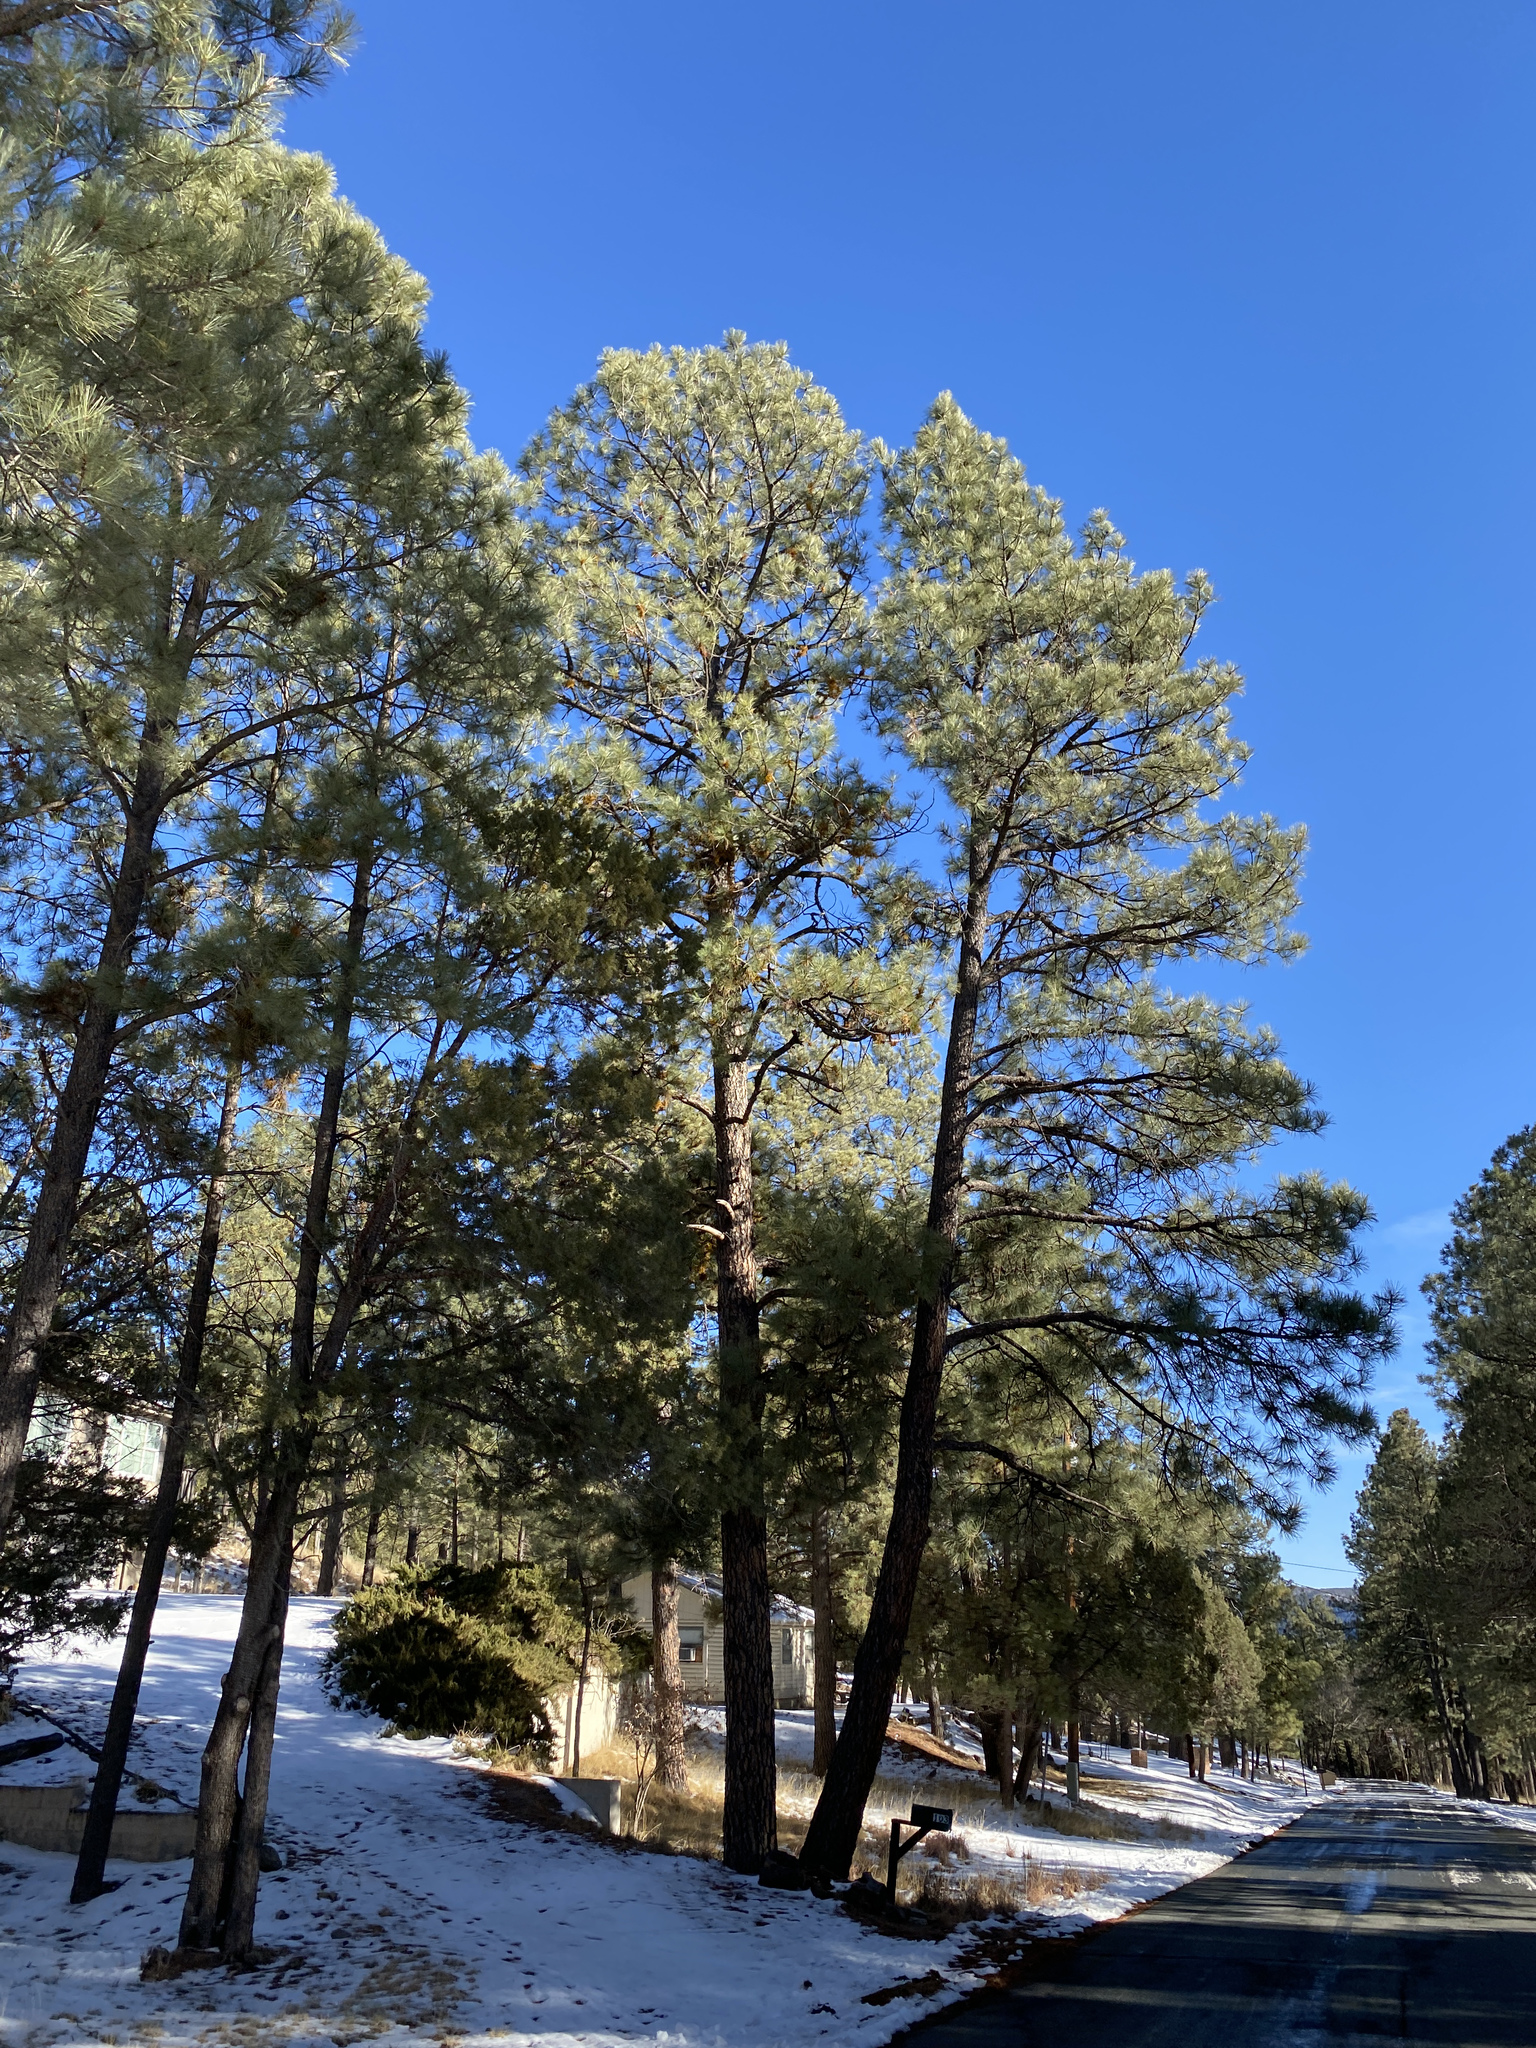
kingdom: Plantae
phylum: Tracheophyta
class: Pinopsida
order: Pinales
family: Pinaceae
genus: Pinus
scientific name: Pinus ponderosa
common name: Western yellow-pine
